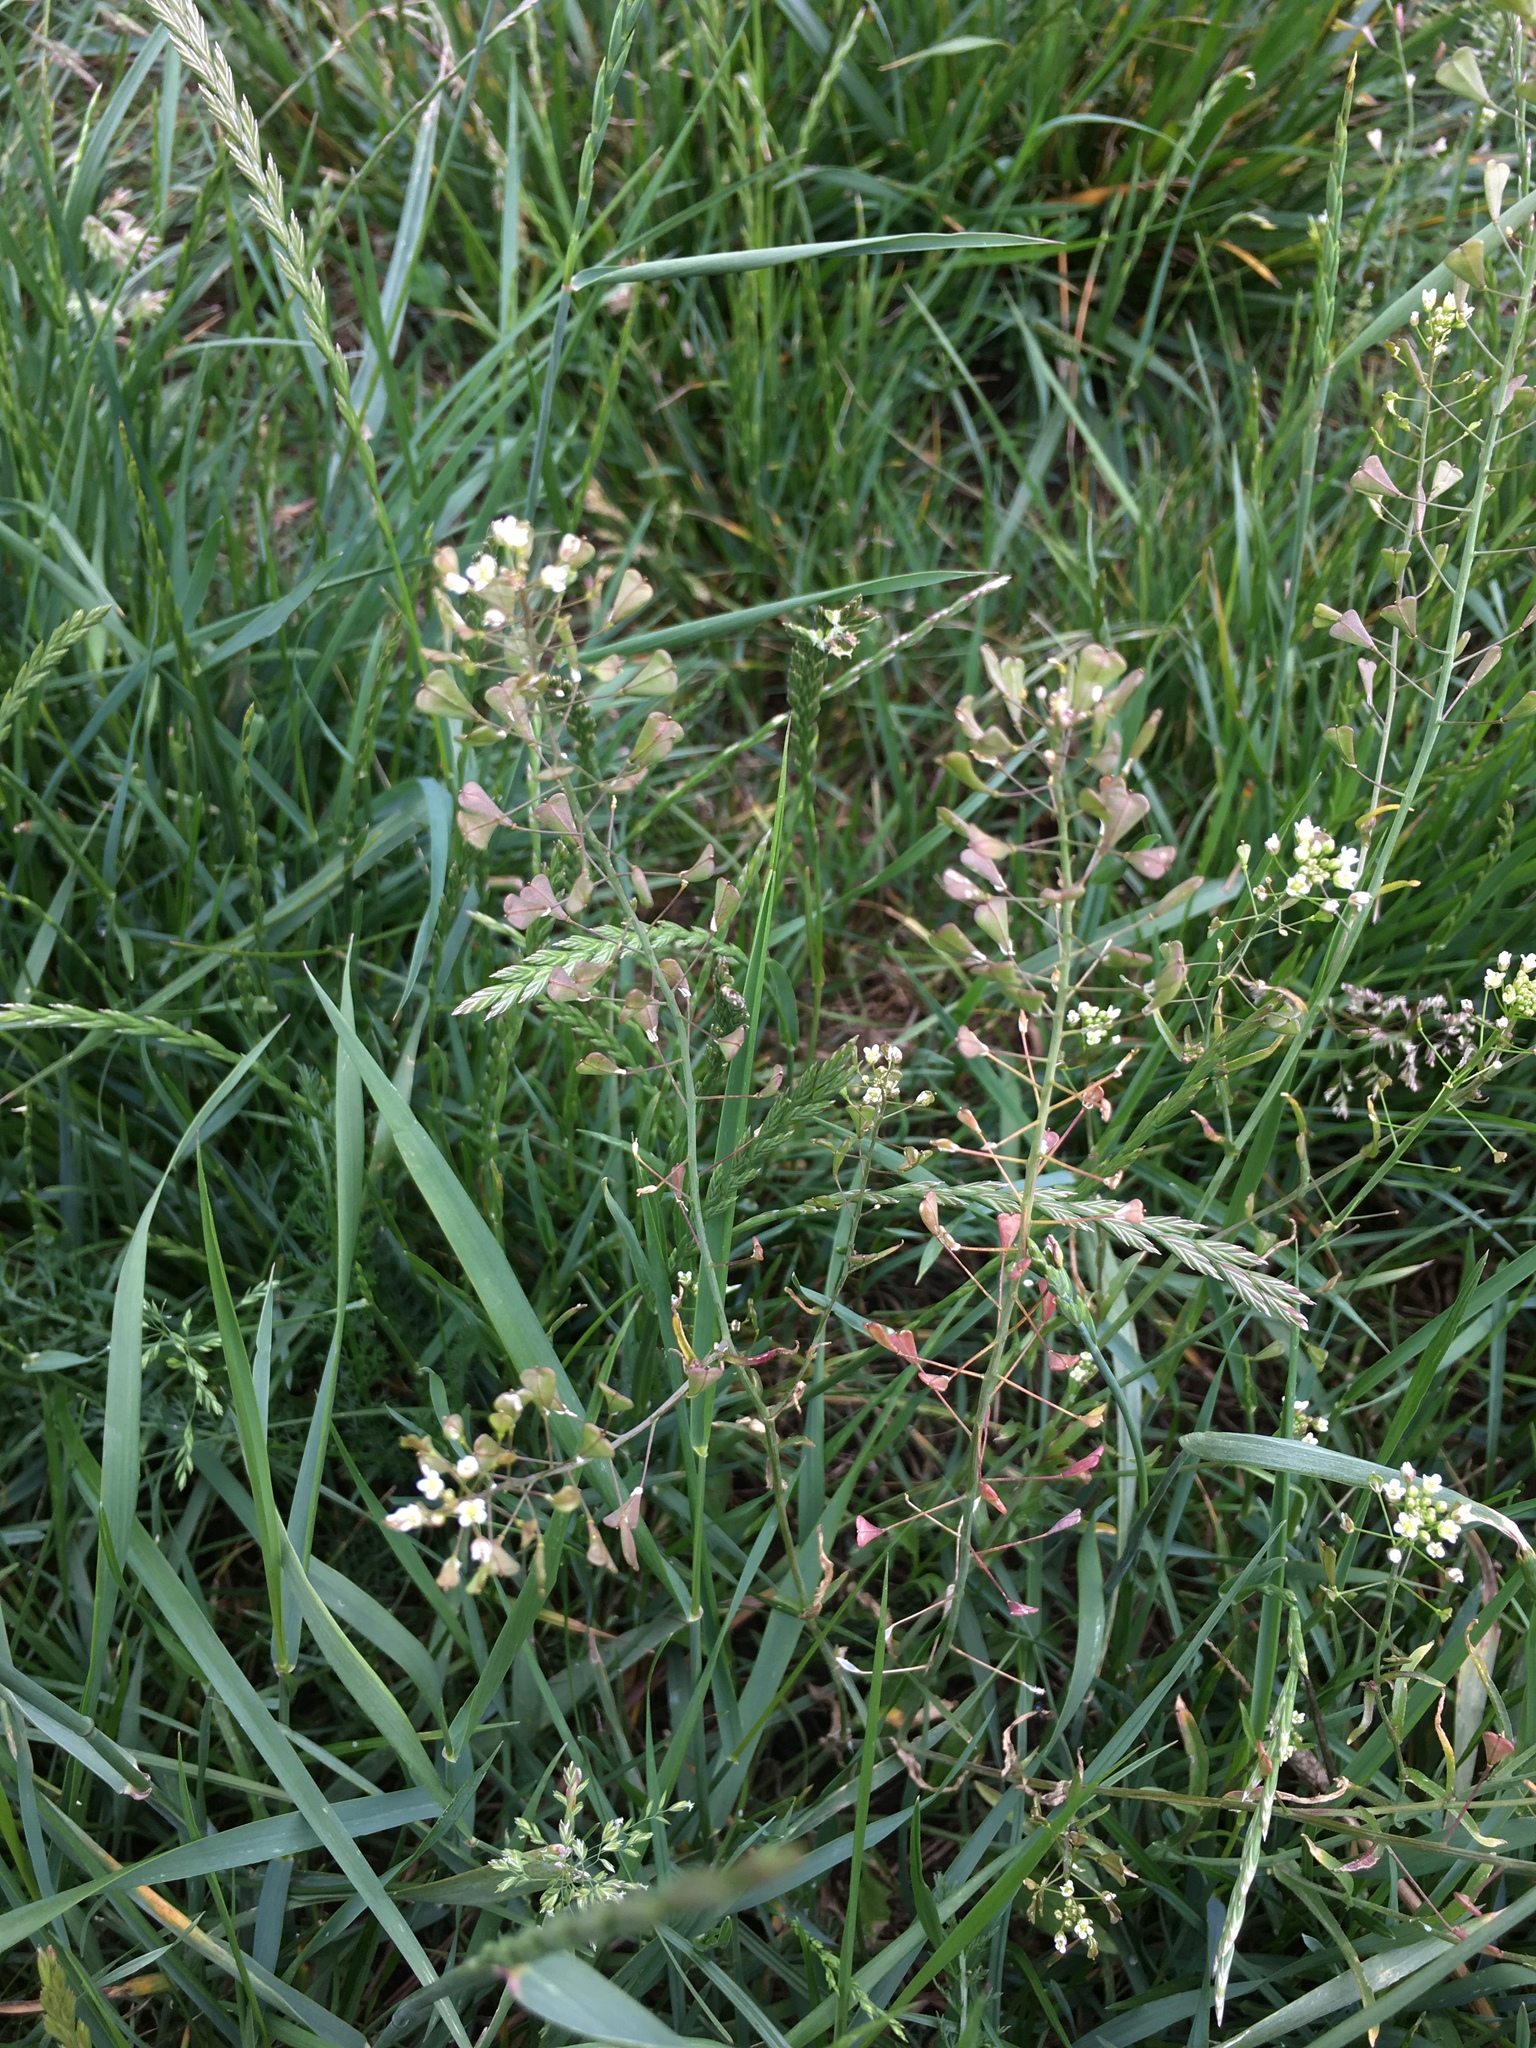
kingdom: Plantae
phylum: Tracheophyta
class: Magnoliopsida
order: Brassicales
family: Brassicaceae
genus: Capsella
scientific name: Capsella bursa-pastoris
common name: Shepherd's purse
